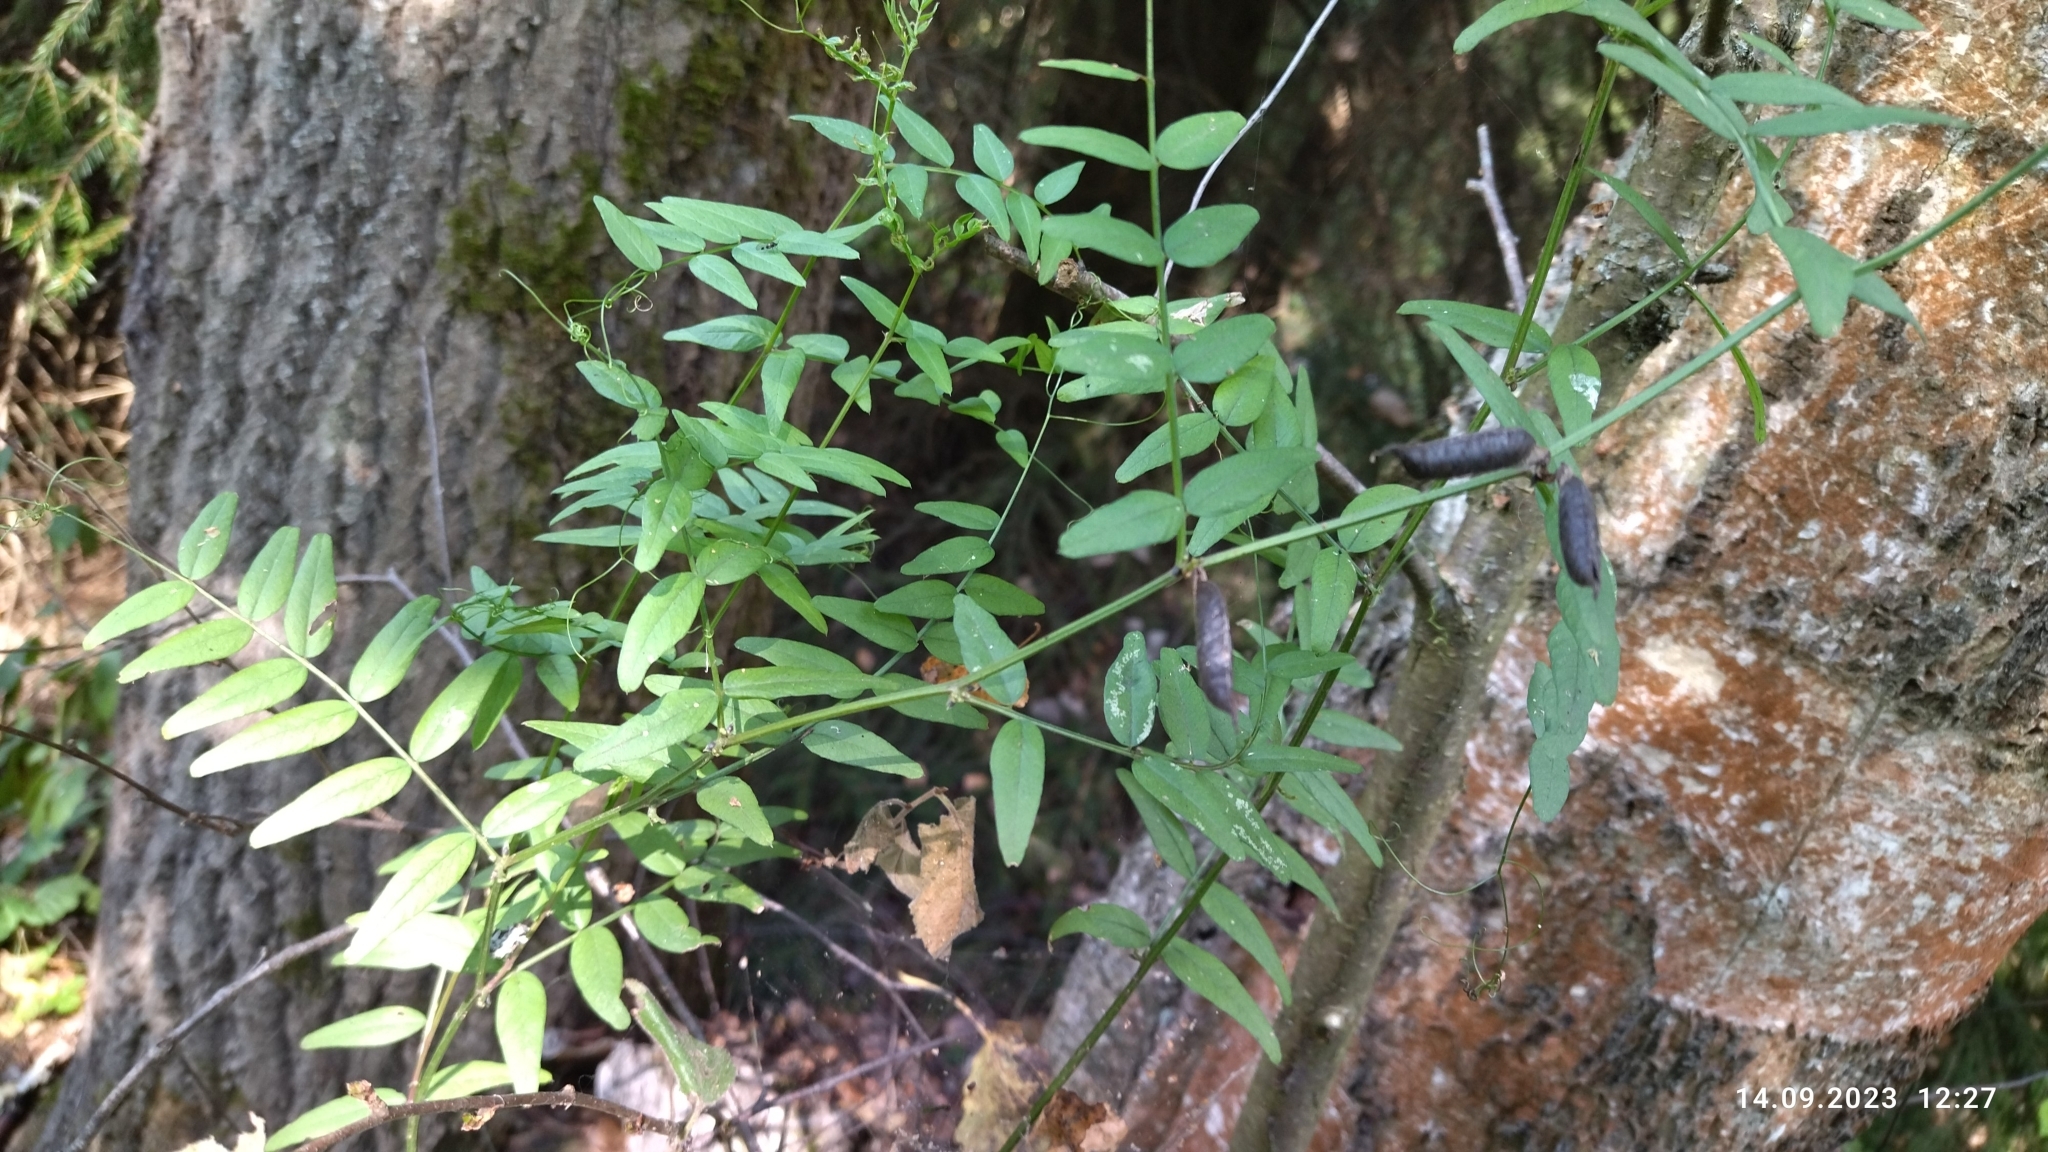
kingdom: Plantae
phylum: Tracheophyta
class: Magnoliopsida
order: Fabales
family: Fabaceae
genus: Vicia
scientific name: Vicia sepium
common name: Bush vetch
